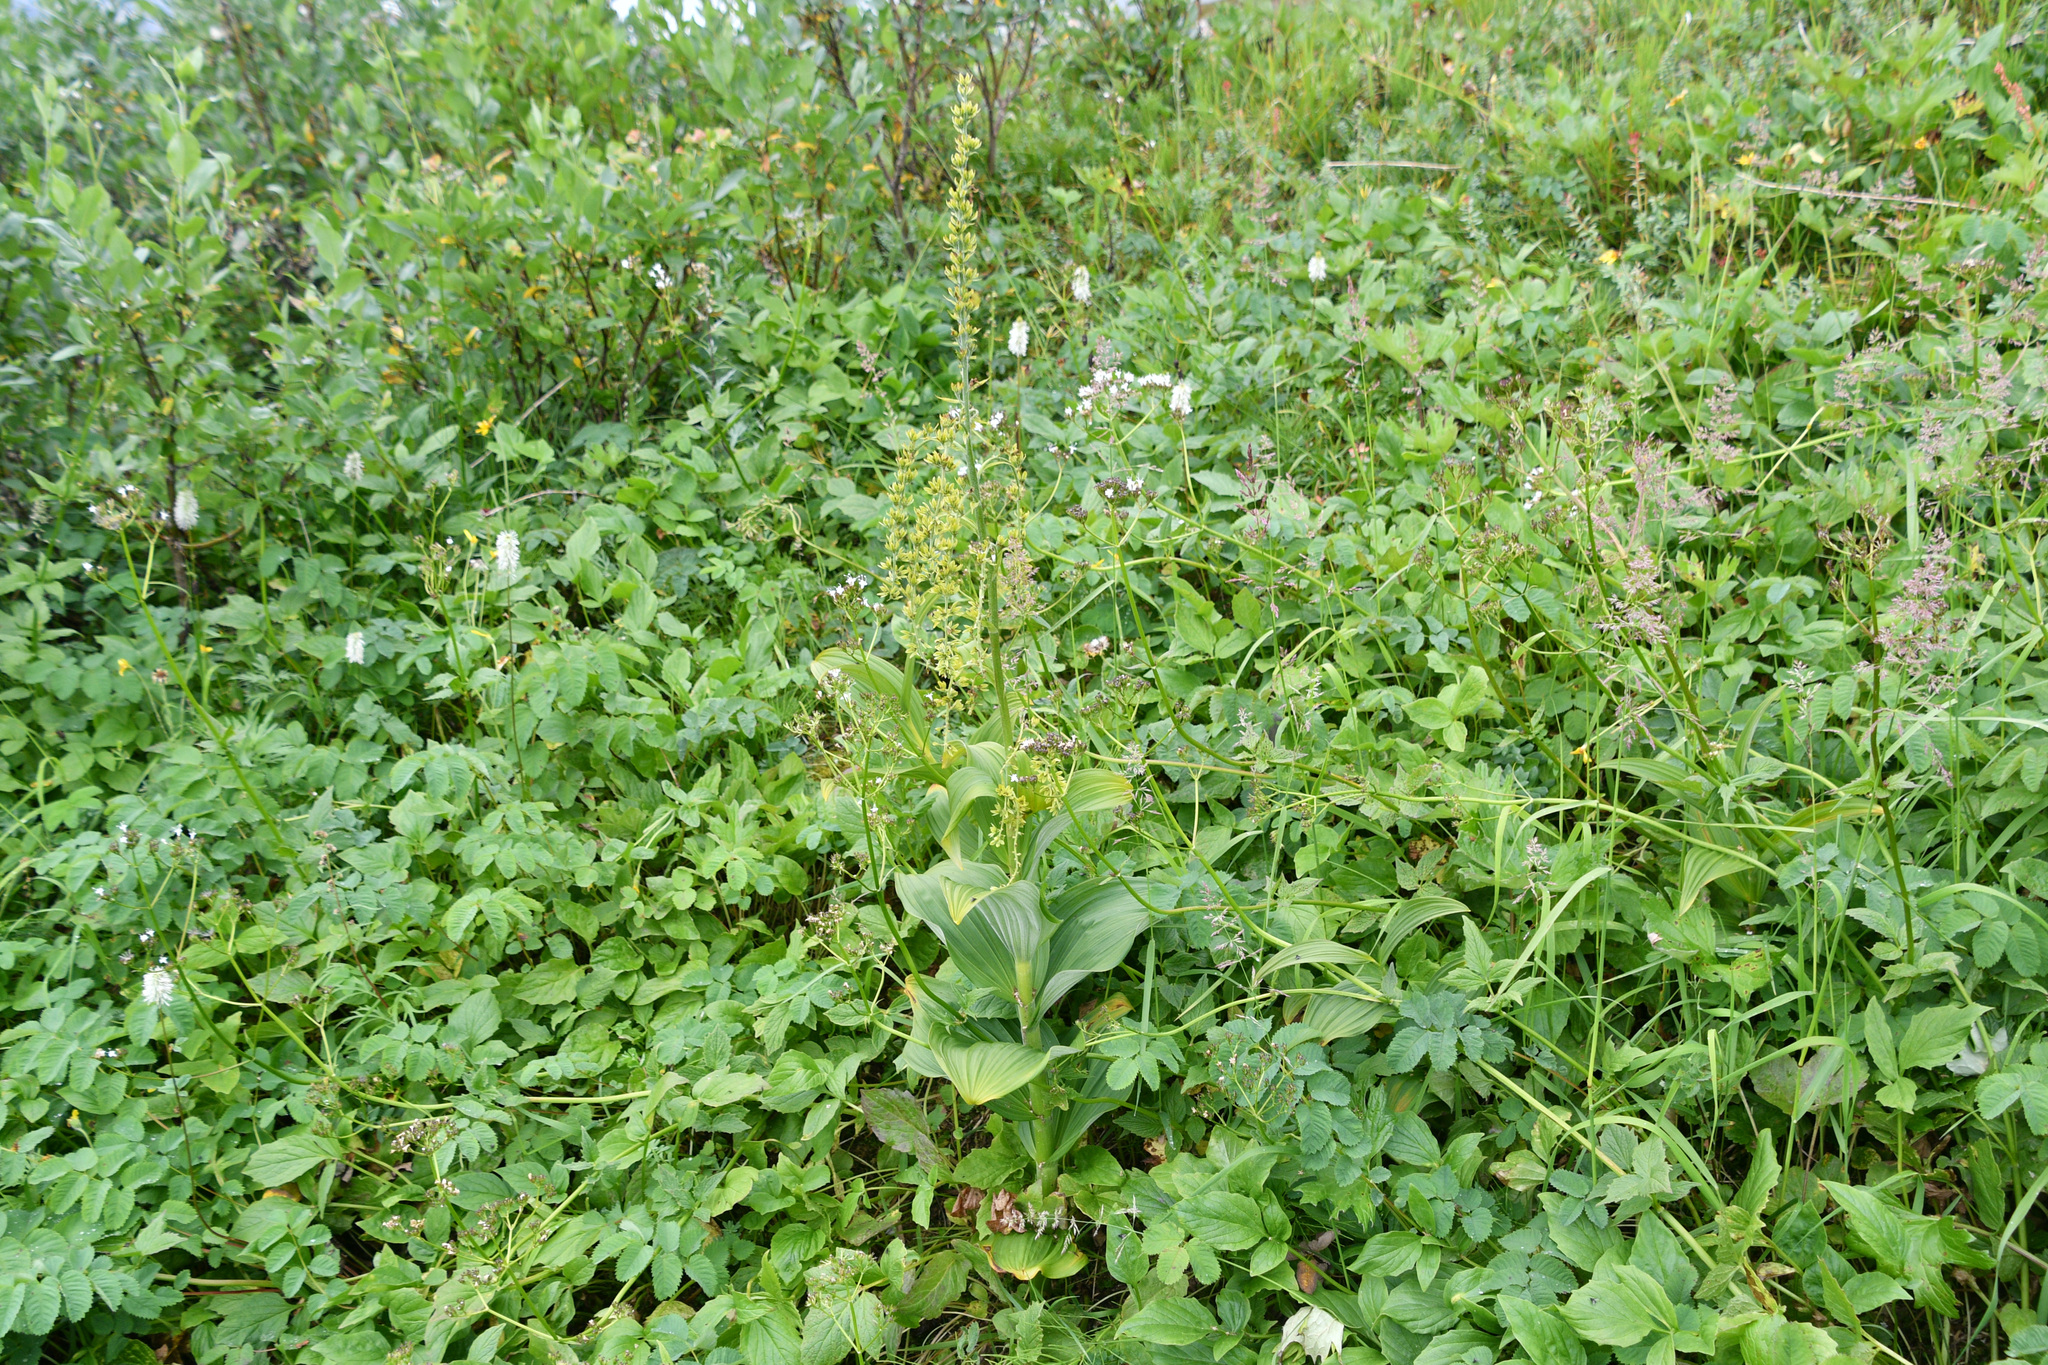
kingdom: Plantae
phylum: Tracheophyta
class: Liliopsida
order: Liliales
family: Melanthiaceae
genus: Veratrum
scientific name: Veratrum viride
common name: American false hellebore
